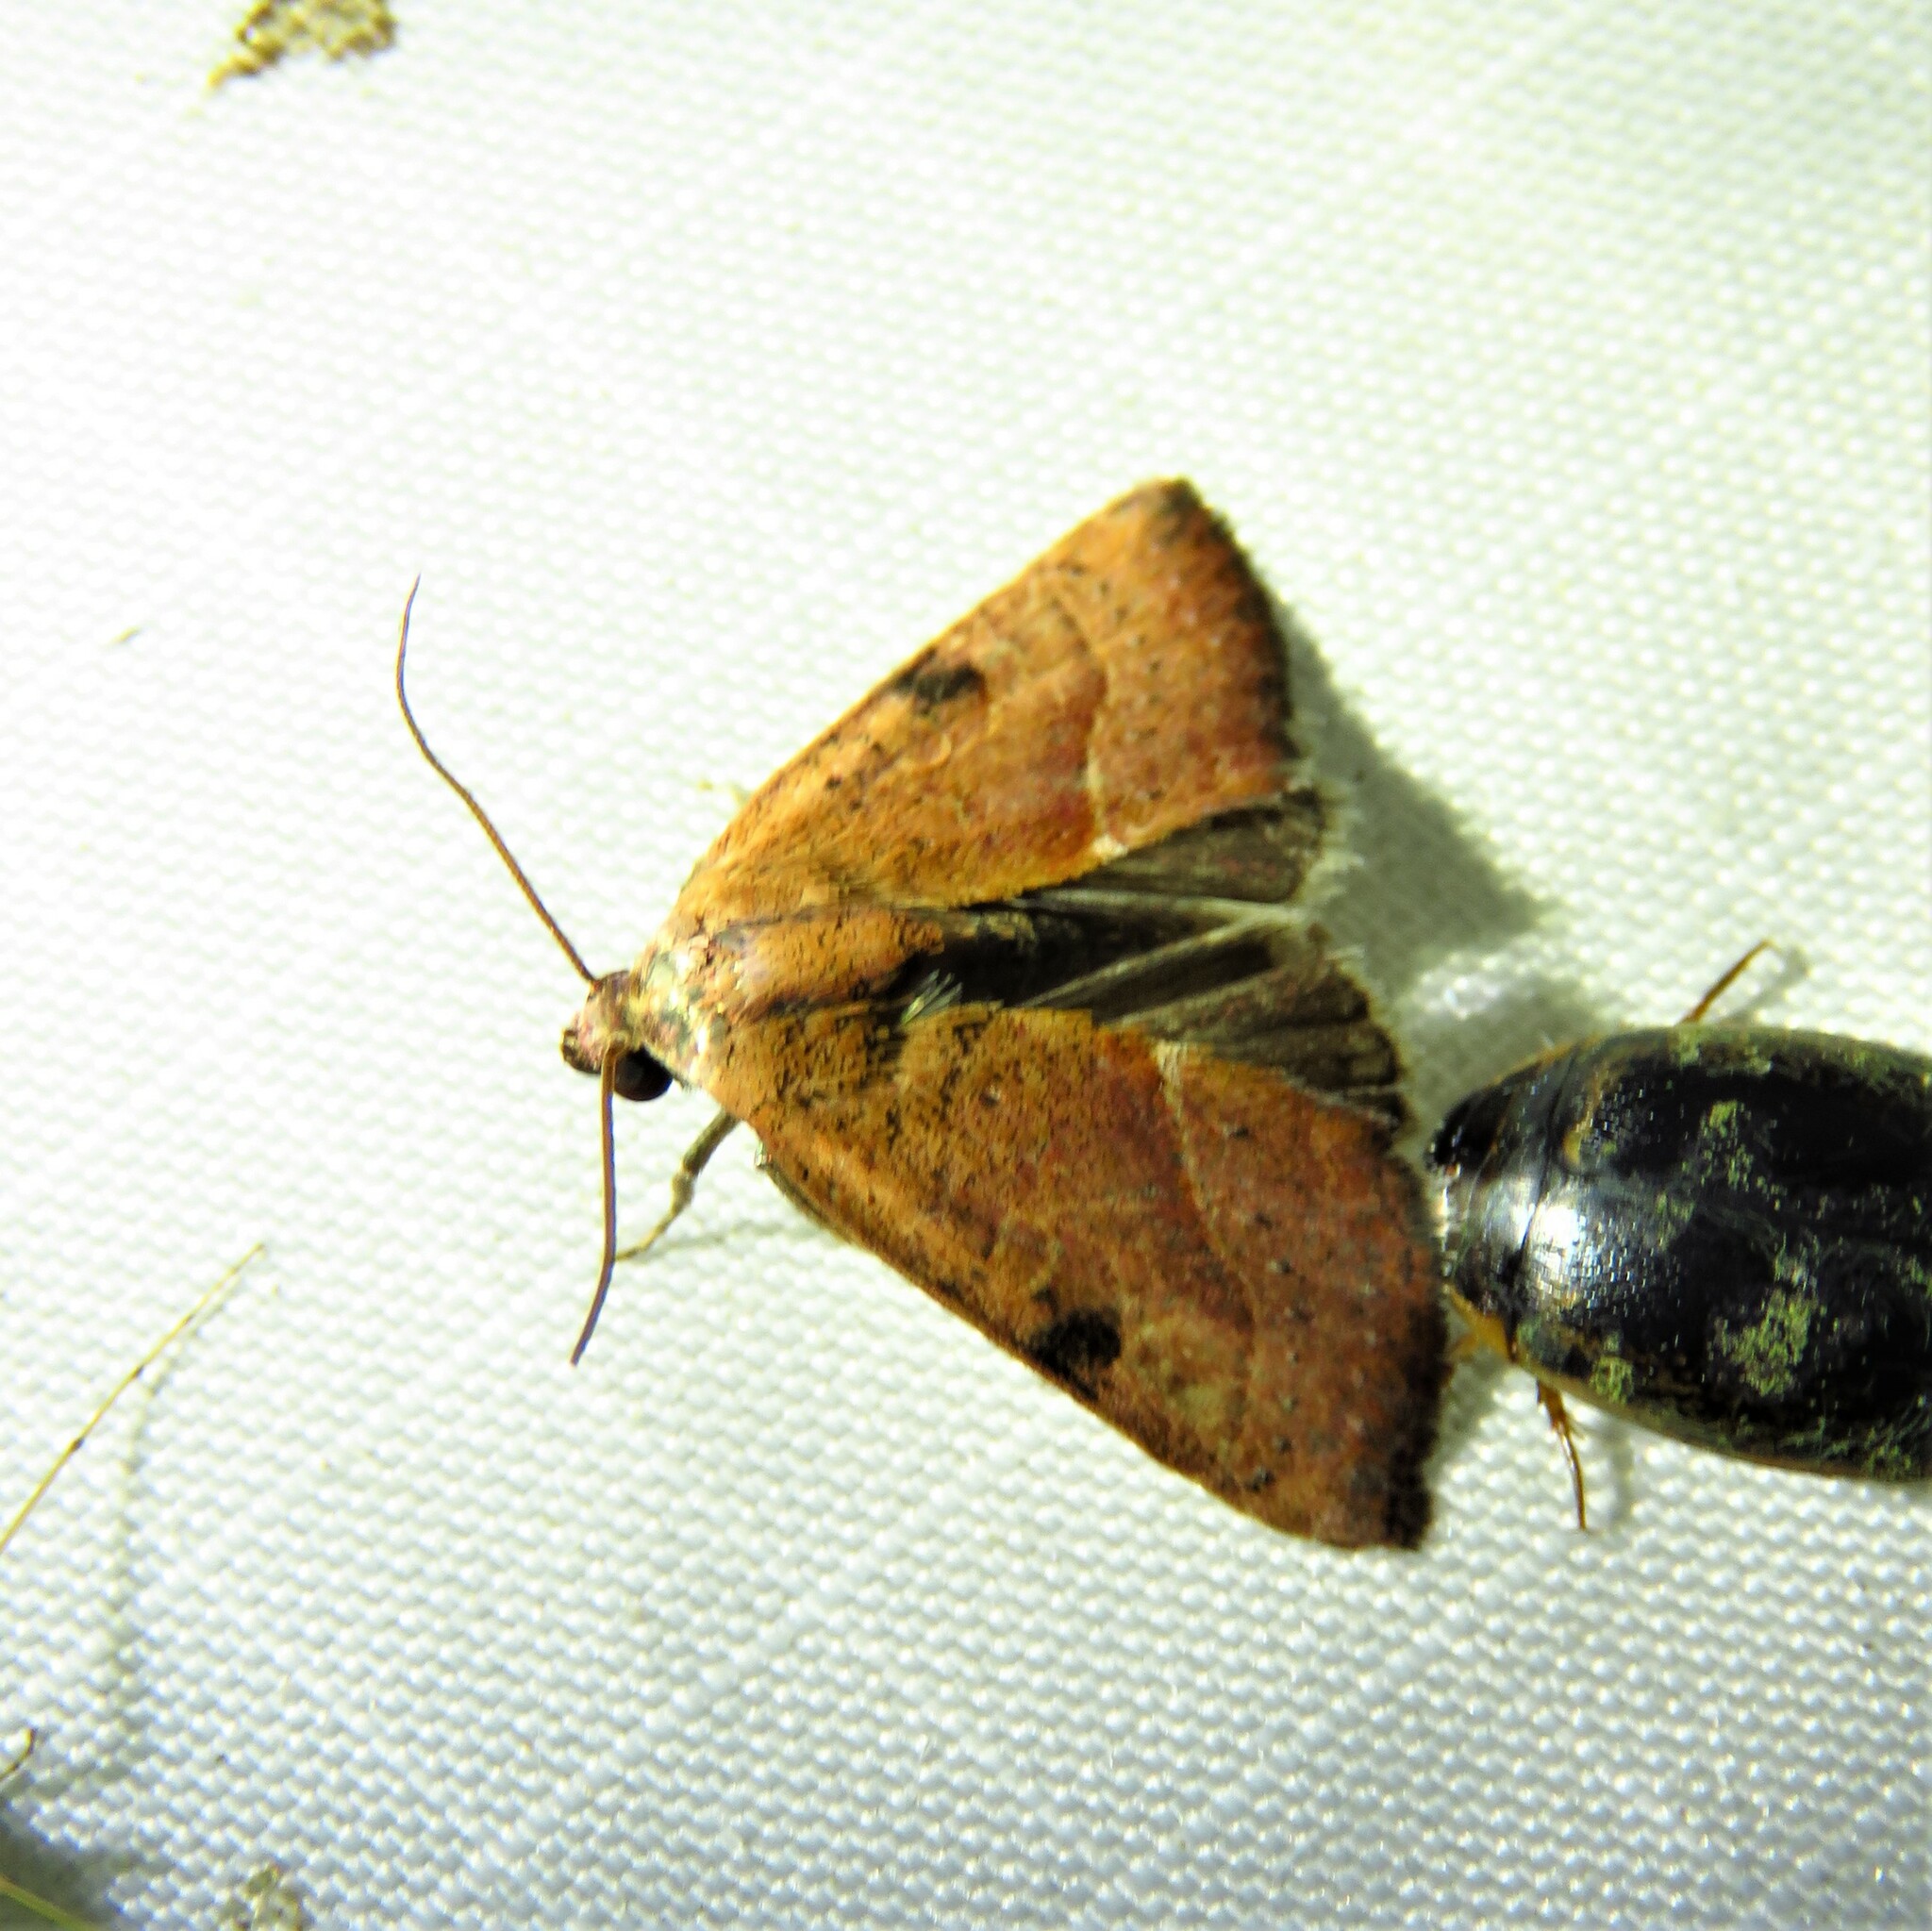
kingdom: Animalia
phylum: Arthropoda
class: Insecta
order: Lepidoptera
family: Noctuidae
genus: Galgula
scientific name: Galgula partita
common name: Wedgeling
